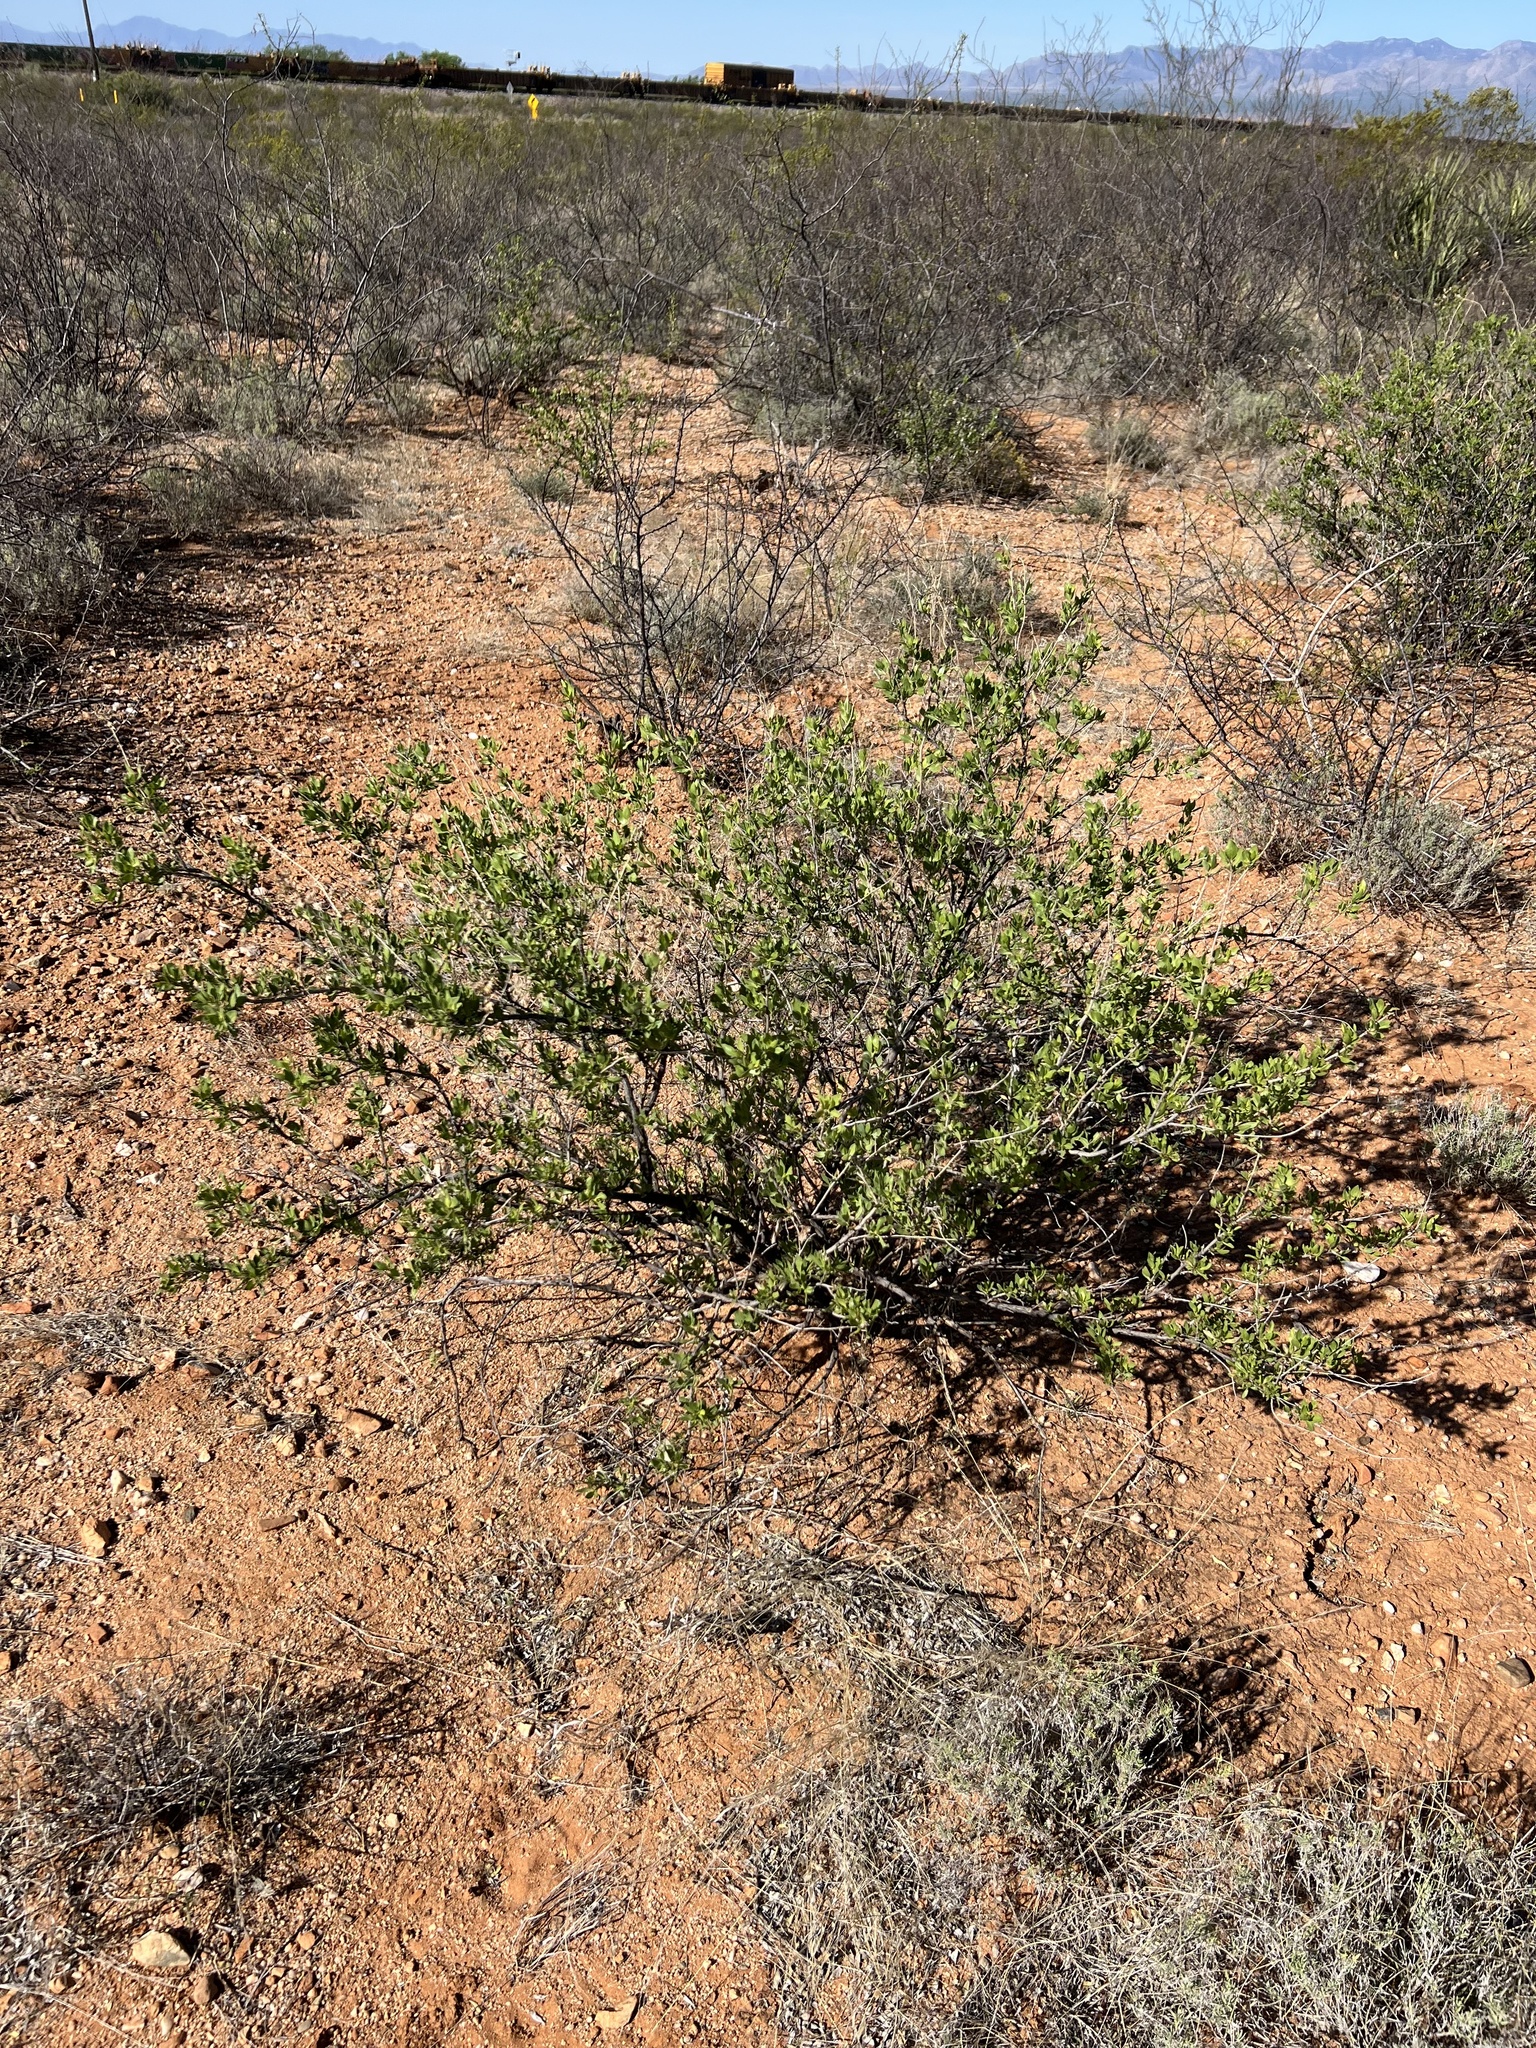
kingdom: Plantae
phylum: Tracheophyta
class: Magnoliopsida
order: Asterales
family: Asteraceae
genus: Flourensia
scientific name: Flourensia cernua
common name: Varnishbush
